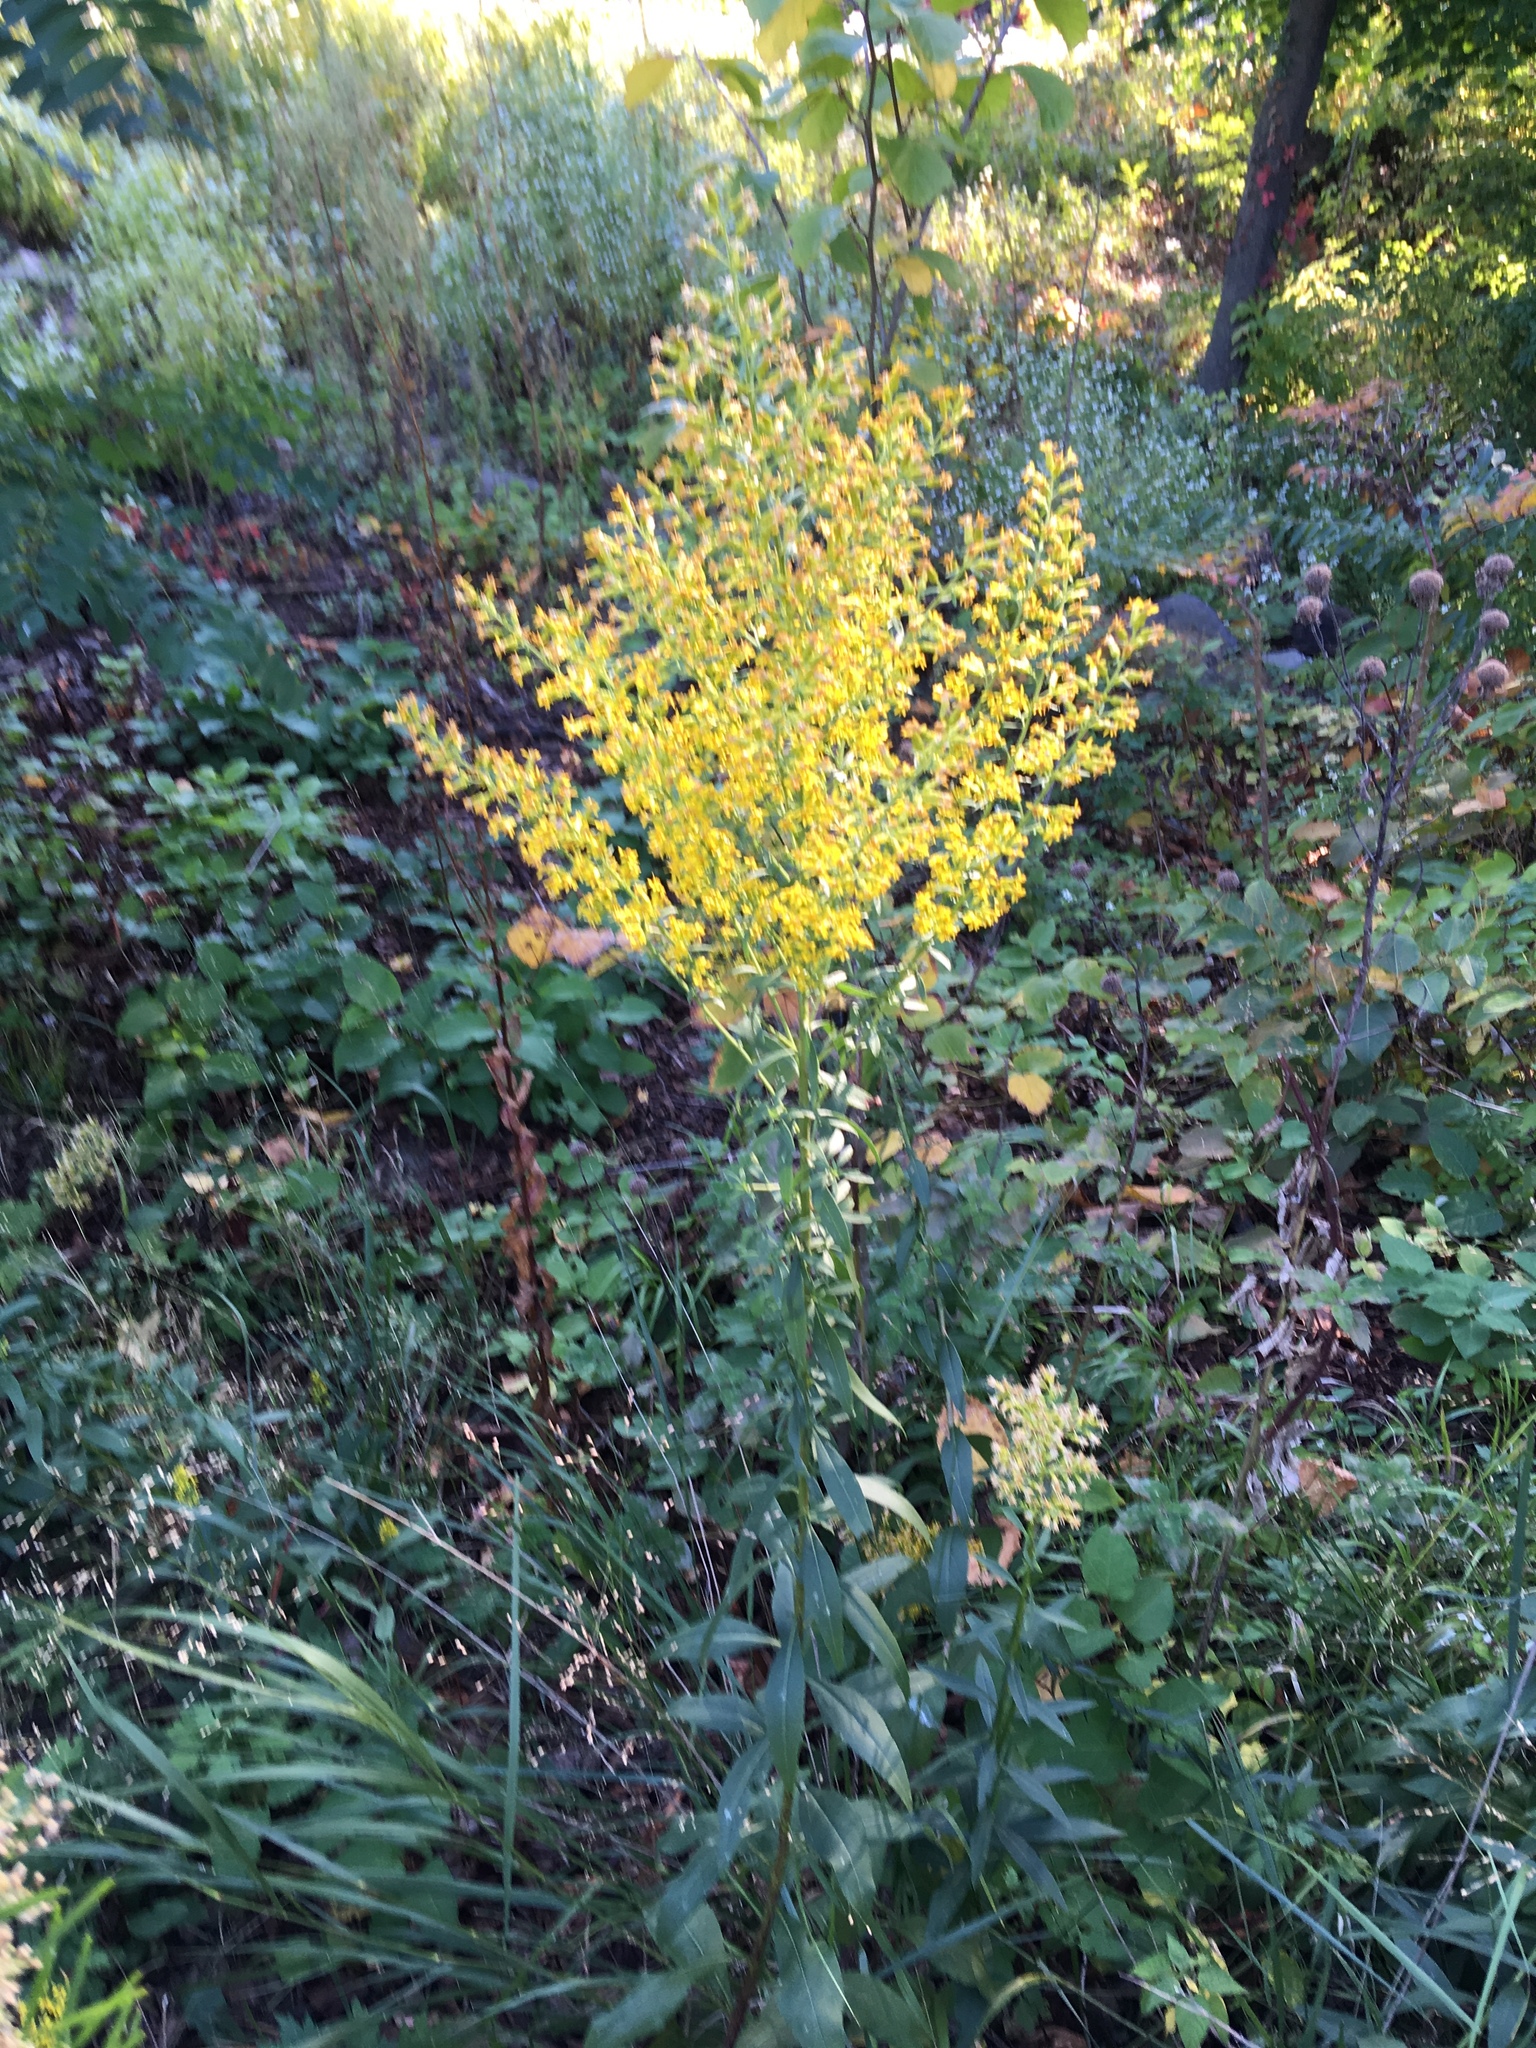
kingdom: Plantae
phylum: Tracheophyta
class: Magnoliopsida
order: Asterales
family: Asteraceae
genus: Solidago
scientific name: Solidago speciosa
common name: Showy goldenrod
